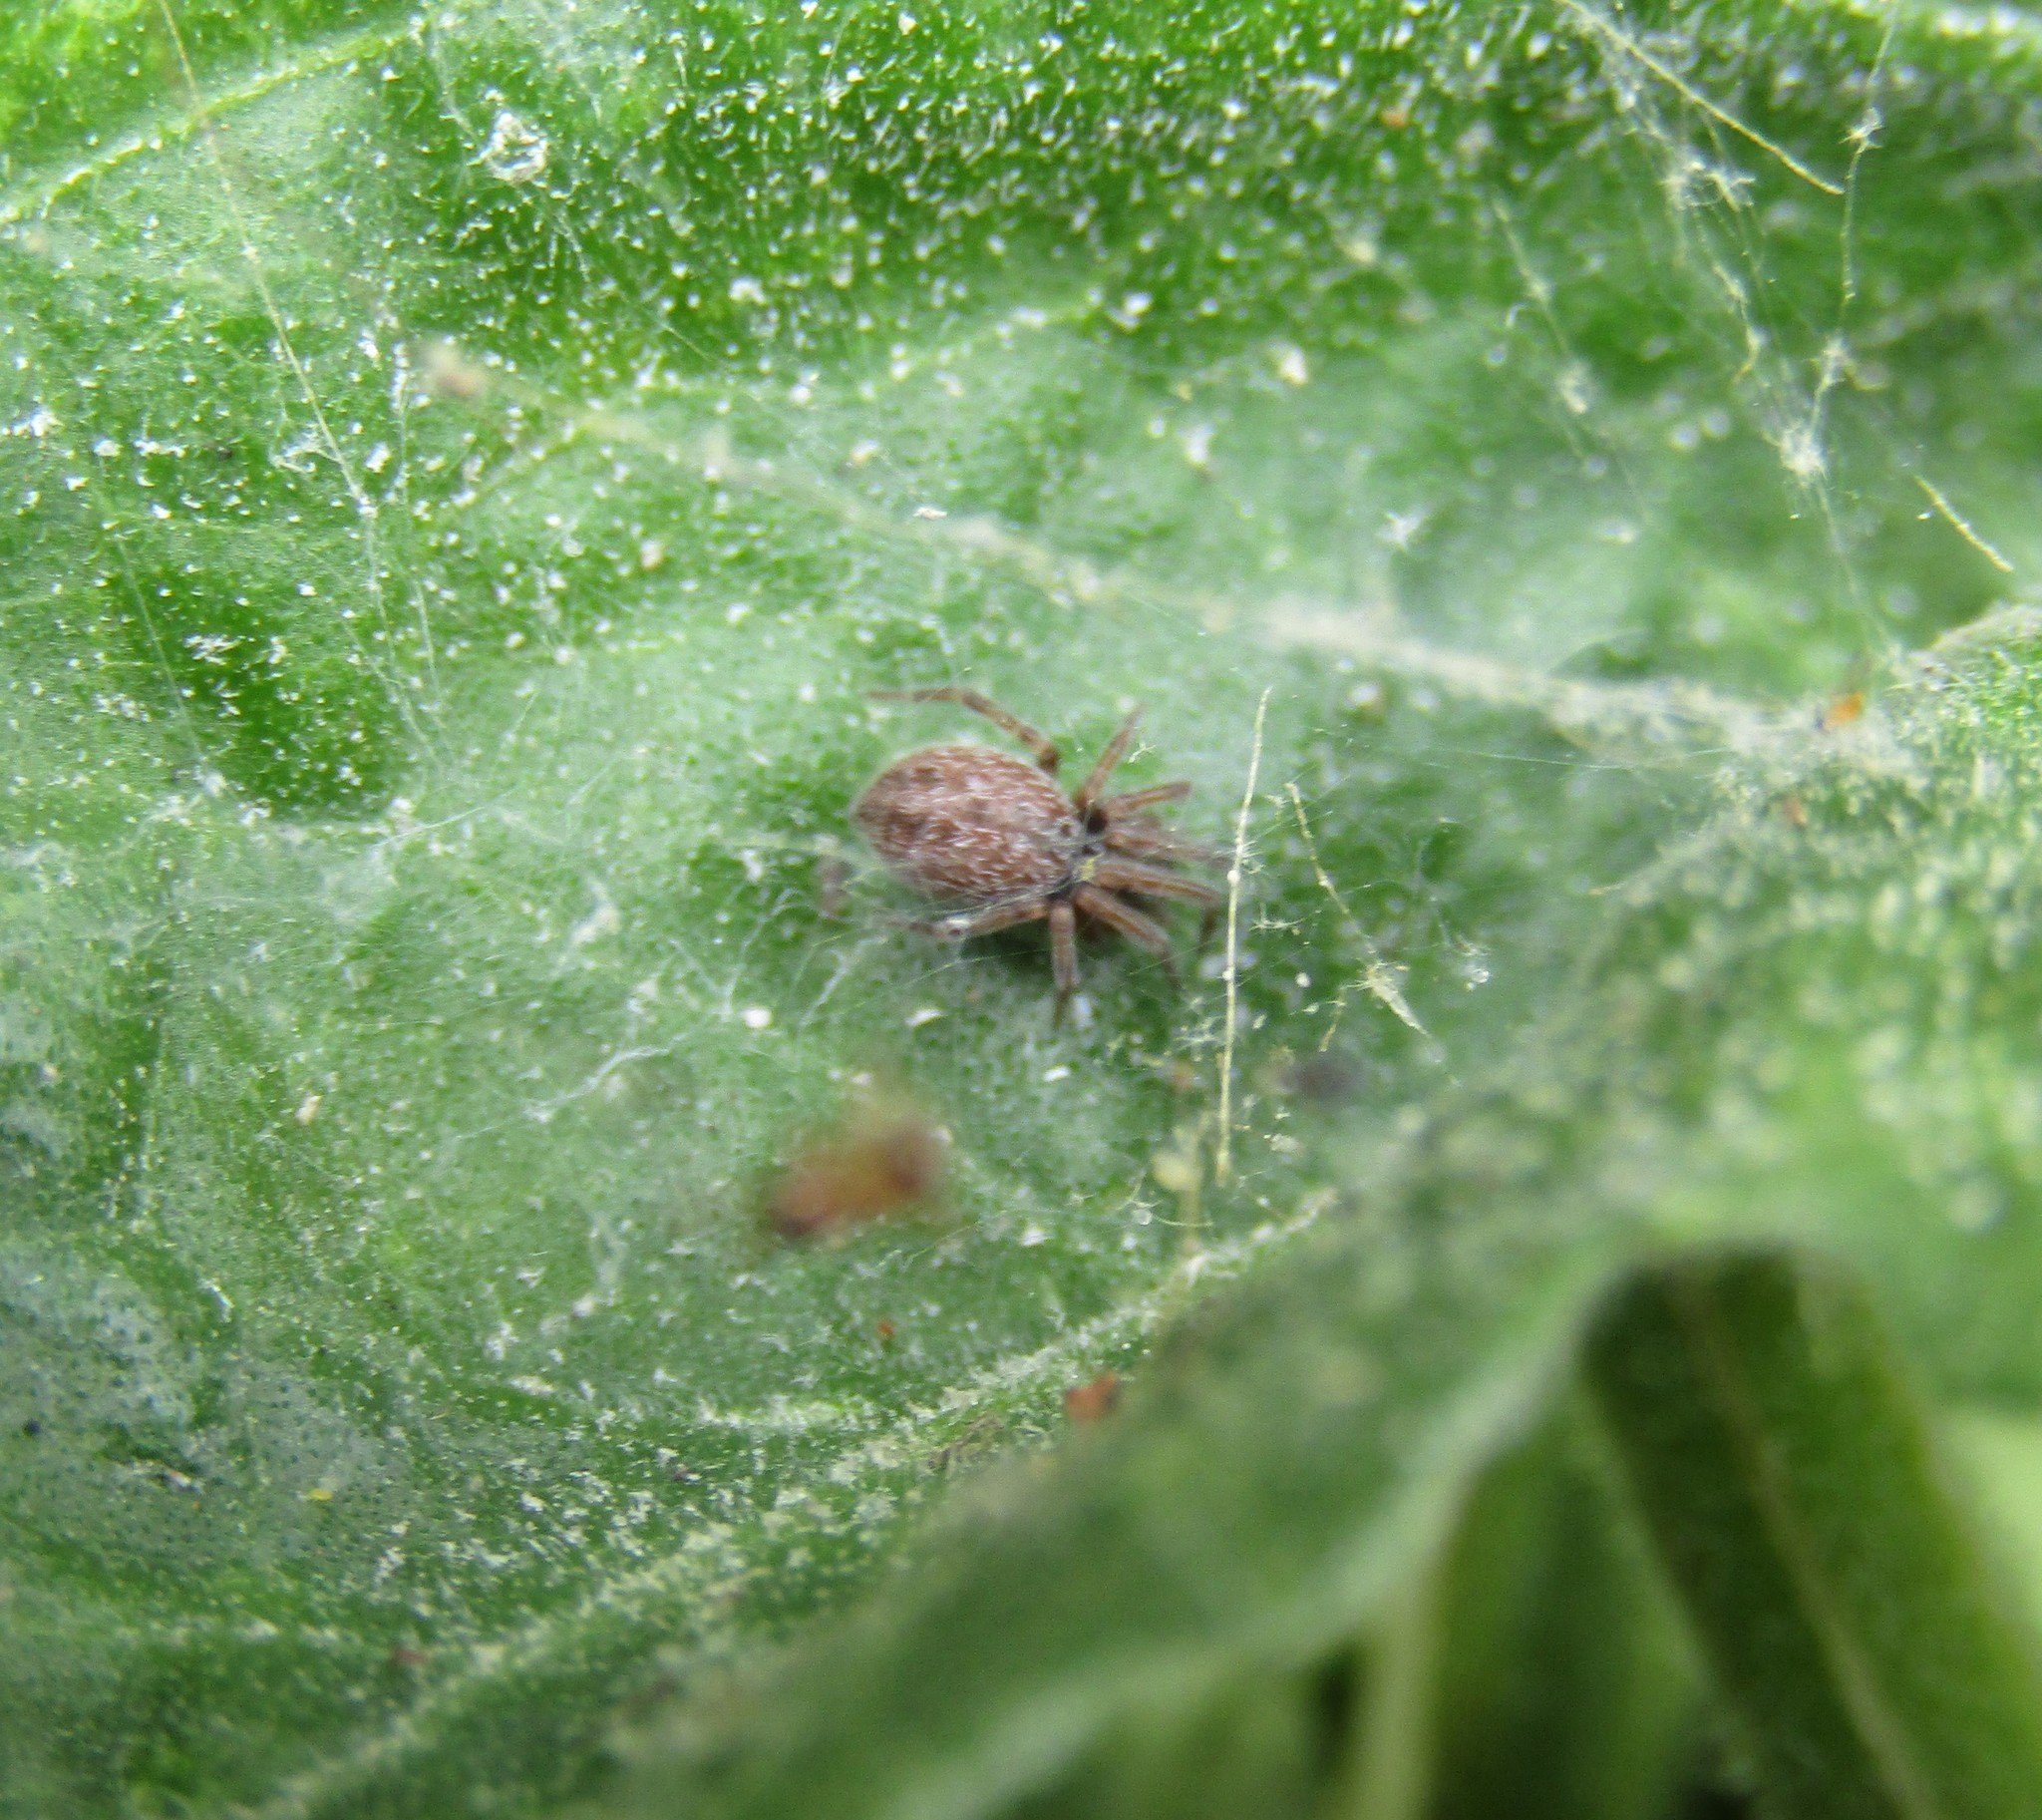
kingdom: Animalia
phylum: Arthropoda
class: Arachnida
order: Araneae
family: Desidae
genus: Badumna
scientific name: Badumna longinqua
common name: Gray house spider
